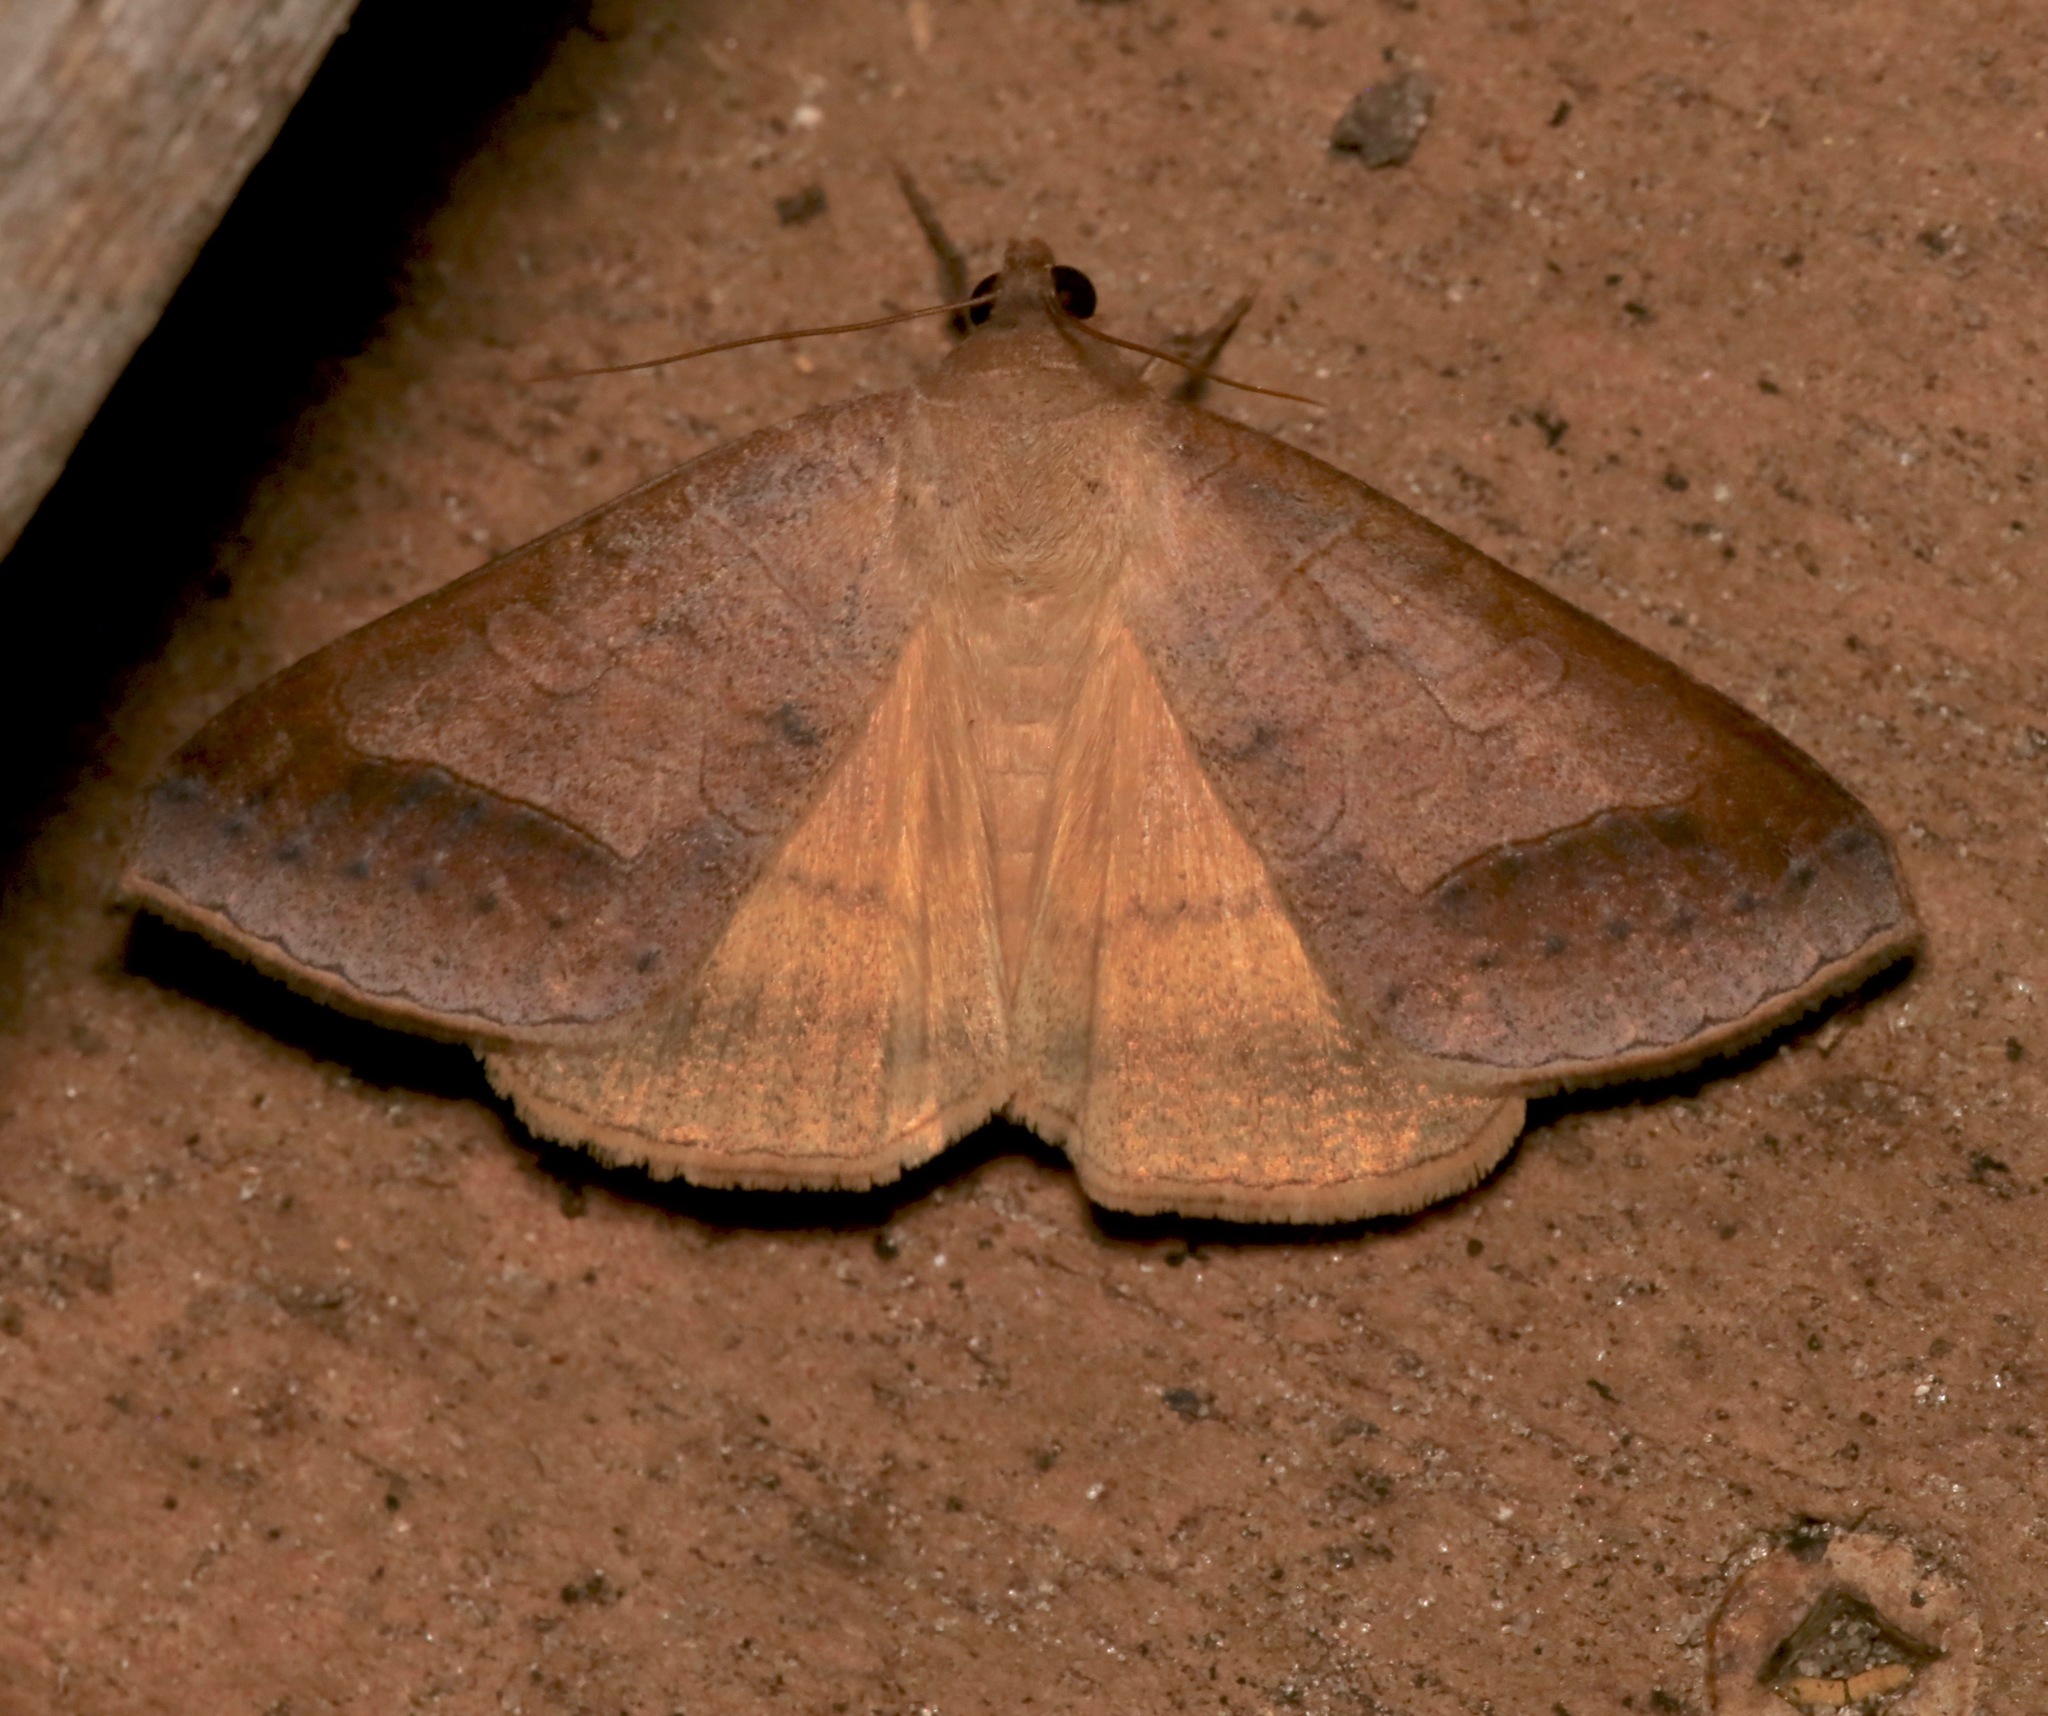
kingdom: Animalia
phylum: Arthropoda
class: Insecta
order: Lepidoptera
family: Erebidae
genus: Mocis
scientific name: Mocis marcida
